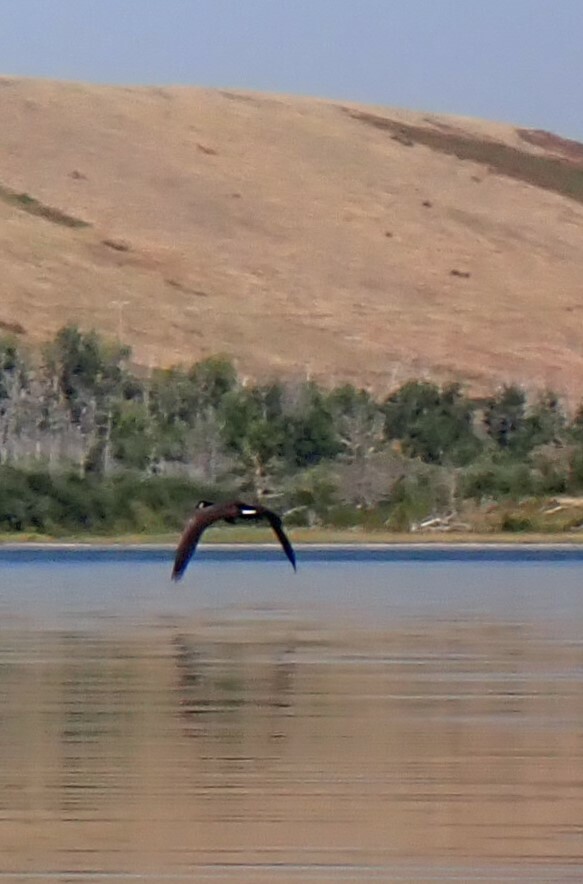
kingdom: Animalia
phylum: Chordata
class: Aves
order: Anseriformes
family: Anatidae
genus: Branta
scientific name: Branta canadensis
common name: Canada goose
